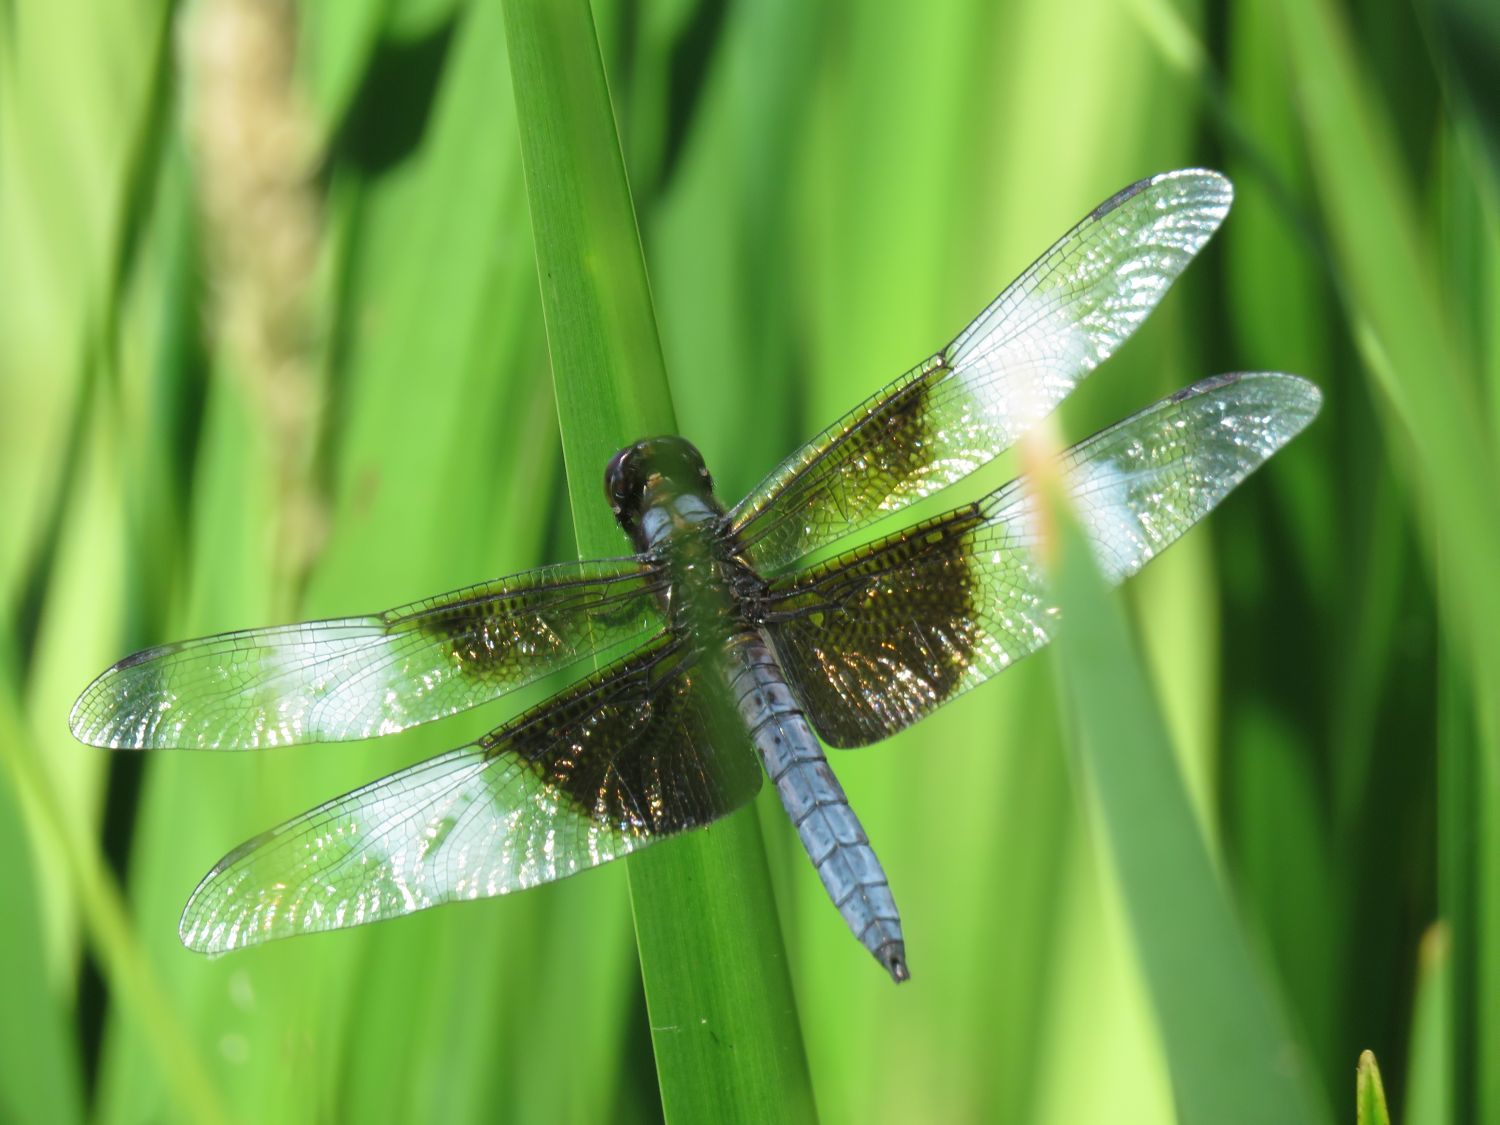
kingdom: Animalia
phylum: Arthropoda
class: Insecta
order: Odonata
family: Libellulidae
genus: Libellula
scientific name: Libellula luctuosa
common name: Widow skimmer
